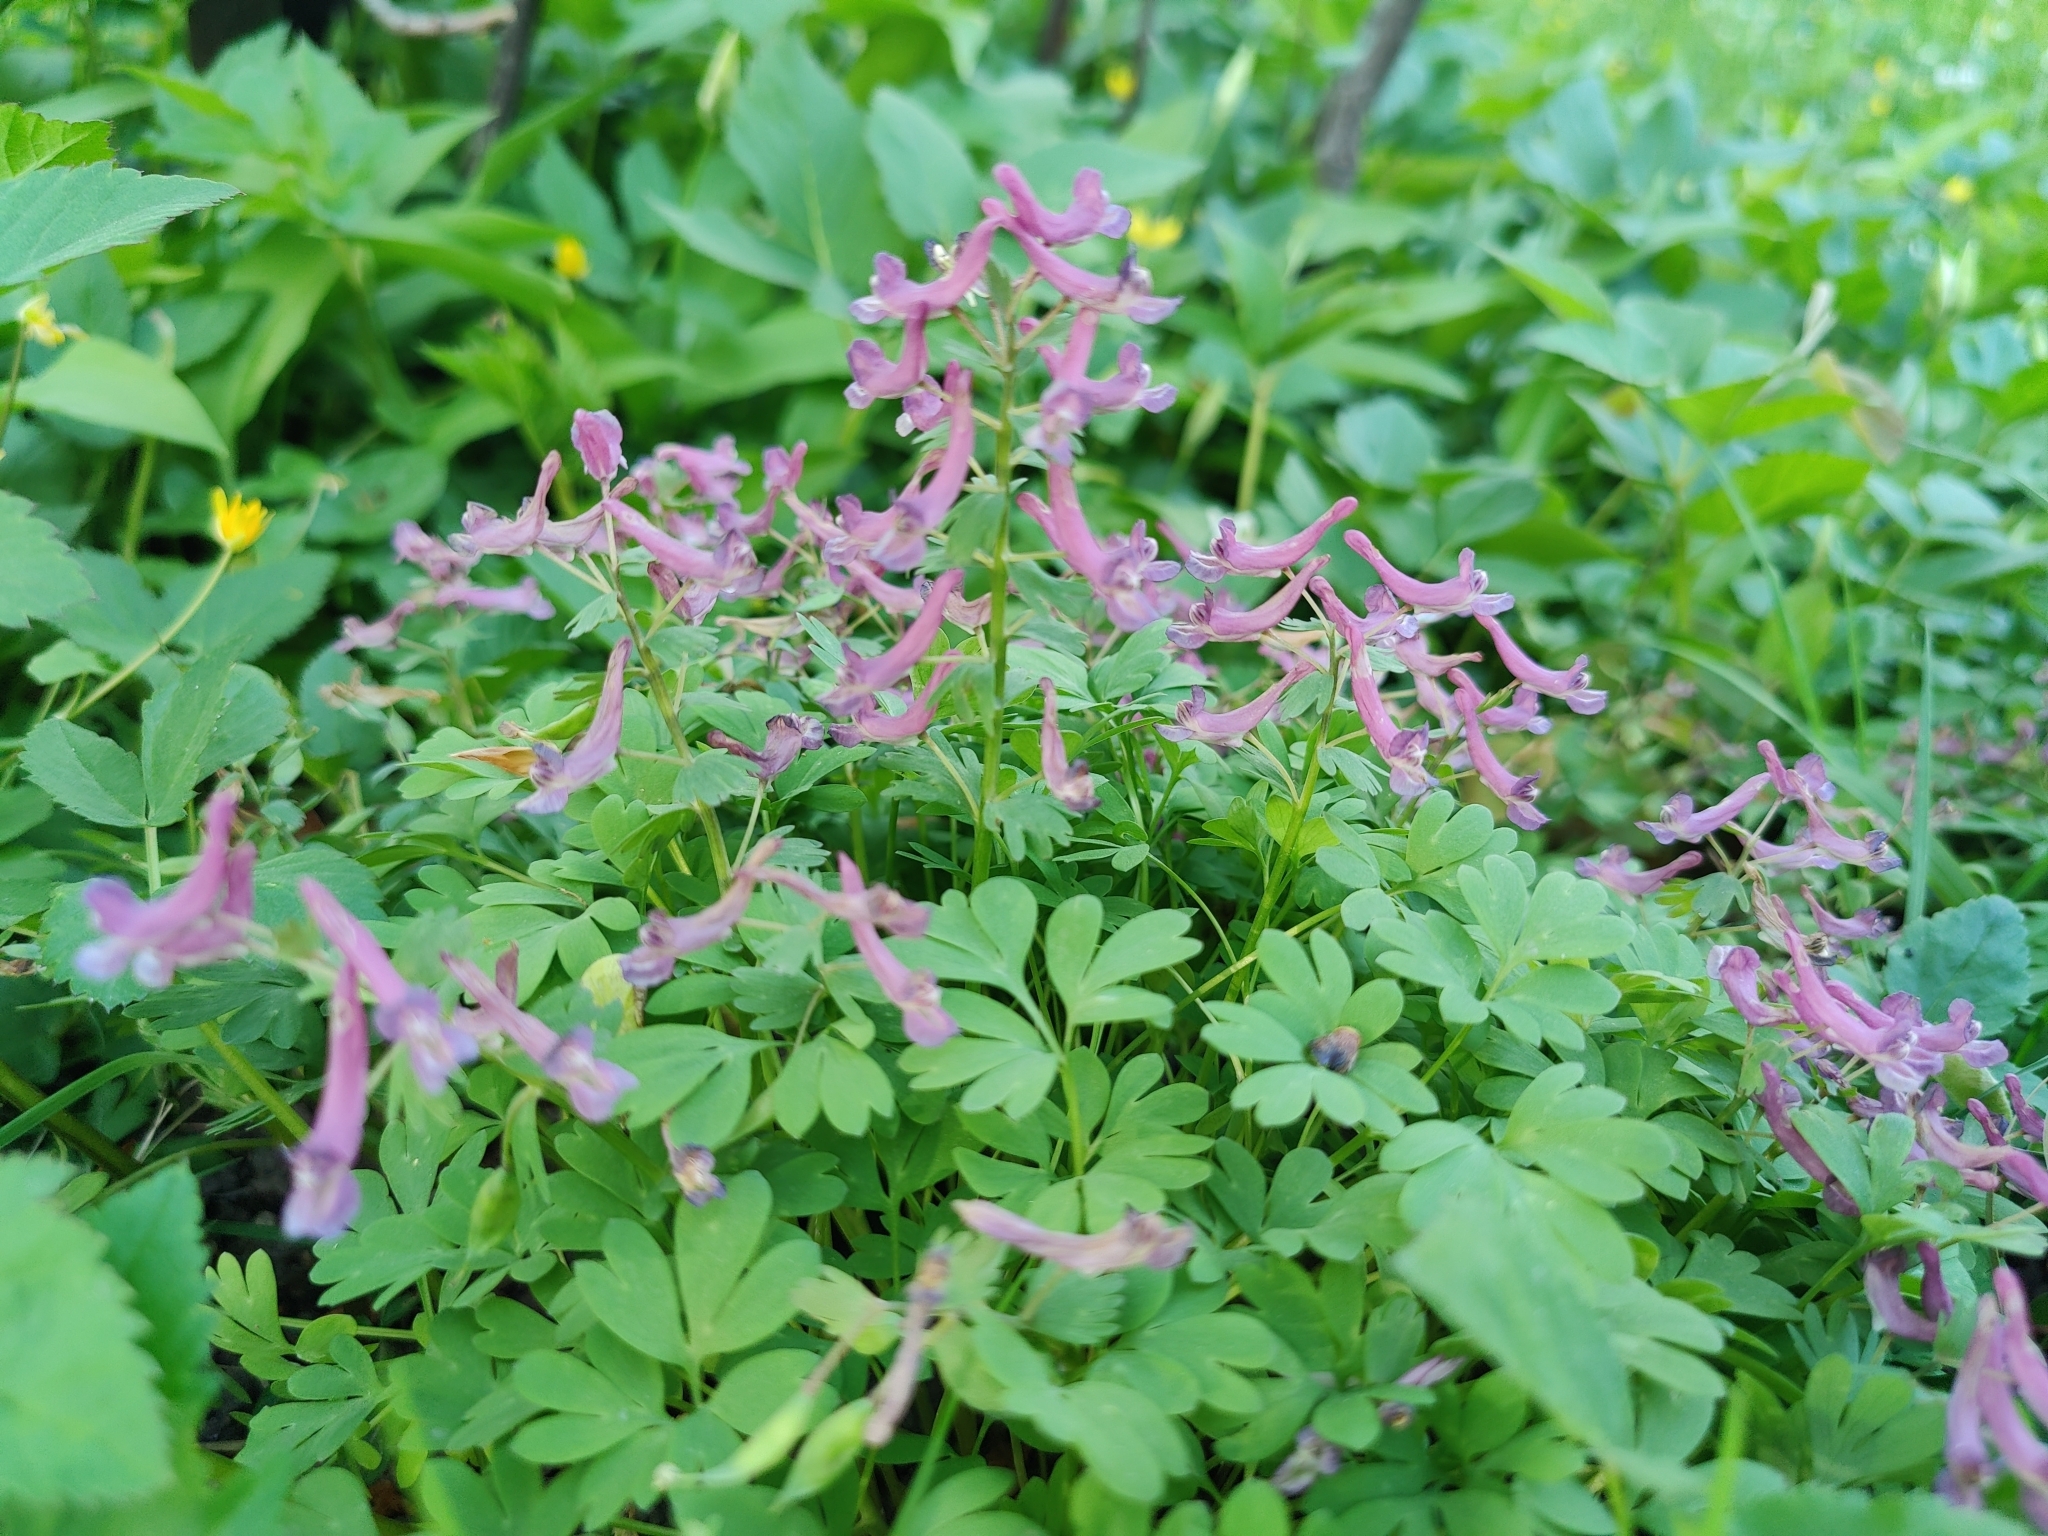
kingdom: Plantae
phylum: Tracheophyta
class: Magnoliopsida
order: Ranunculales
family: Papaveraceae
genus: Corydalis
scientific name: Corydalis solida
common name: Bird-in-a-bush
